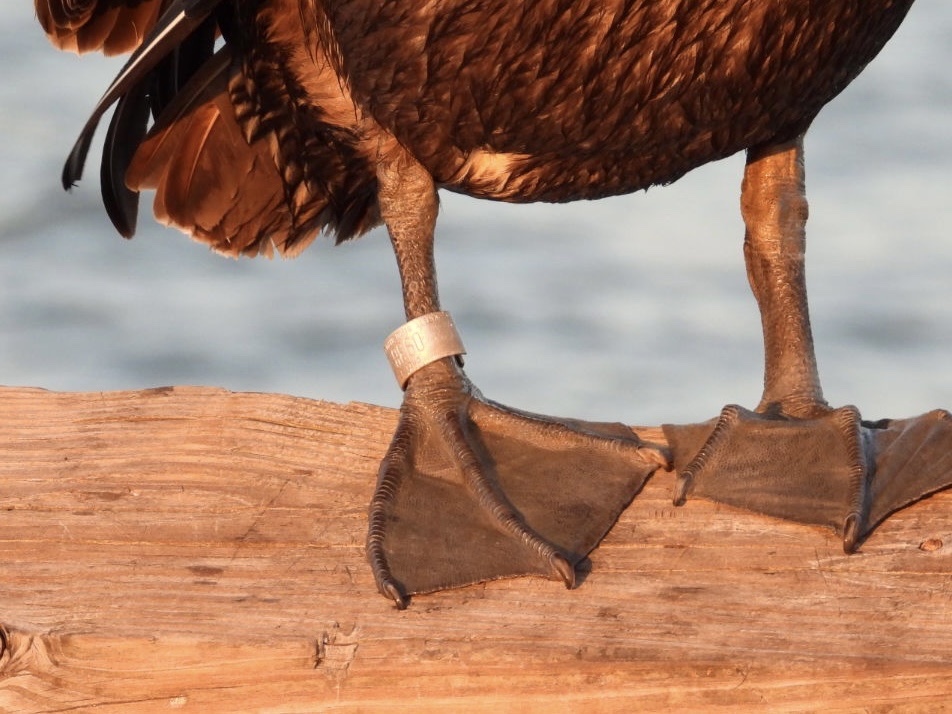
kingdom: Animalia
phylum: Chordata
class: Aves
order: Pelecaniformes
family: Pelecanidae
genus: Pelecanus
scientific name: Pelecanus occidentalis
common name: Brown pelican
